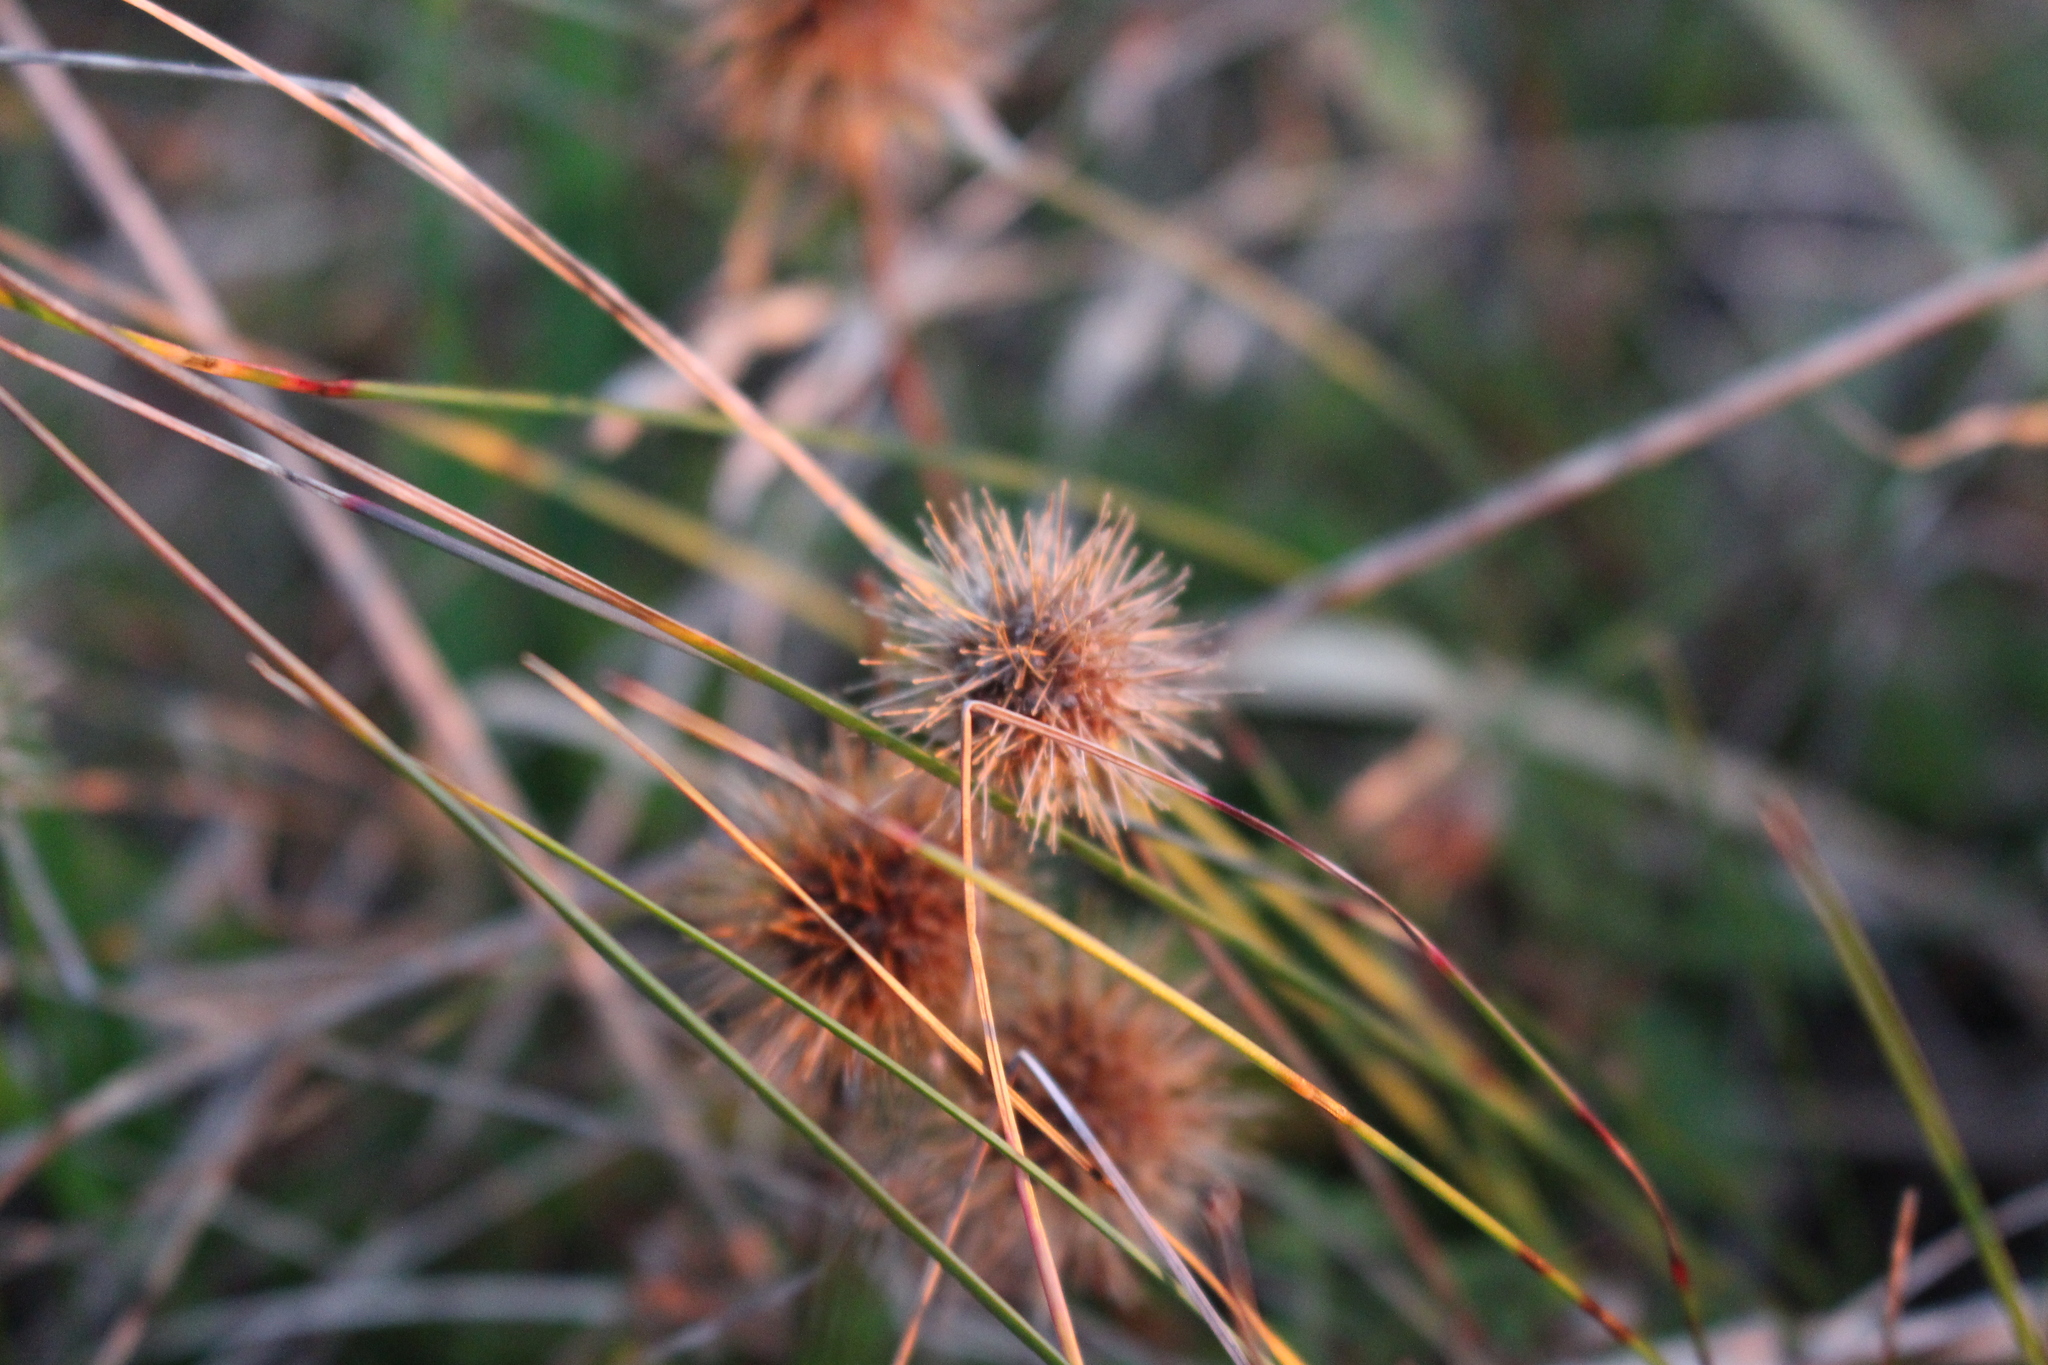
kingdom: Plantae
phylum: Tracheophyta
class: Magnoliopsida
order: Rosales
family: Rosaceae
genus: Acaena
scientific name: Acaena anserinifolia
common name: Bronze pirri-pirri-bur
